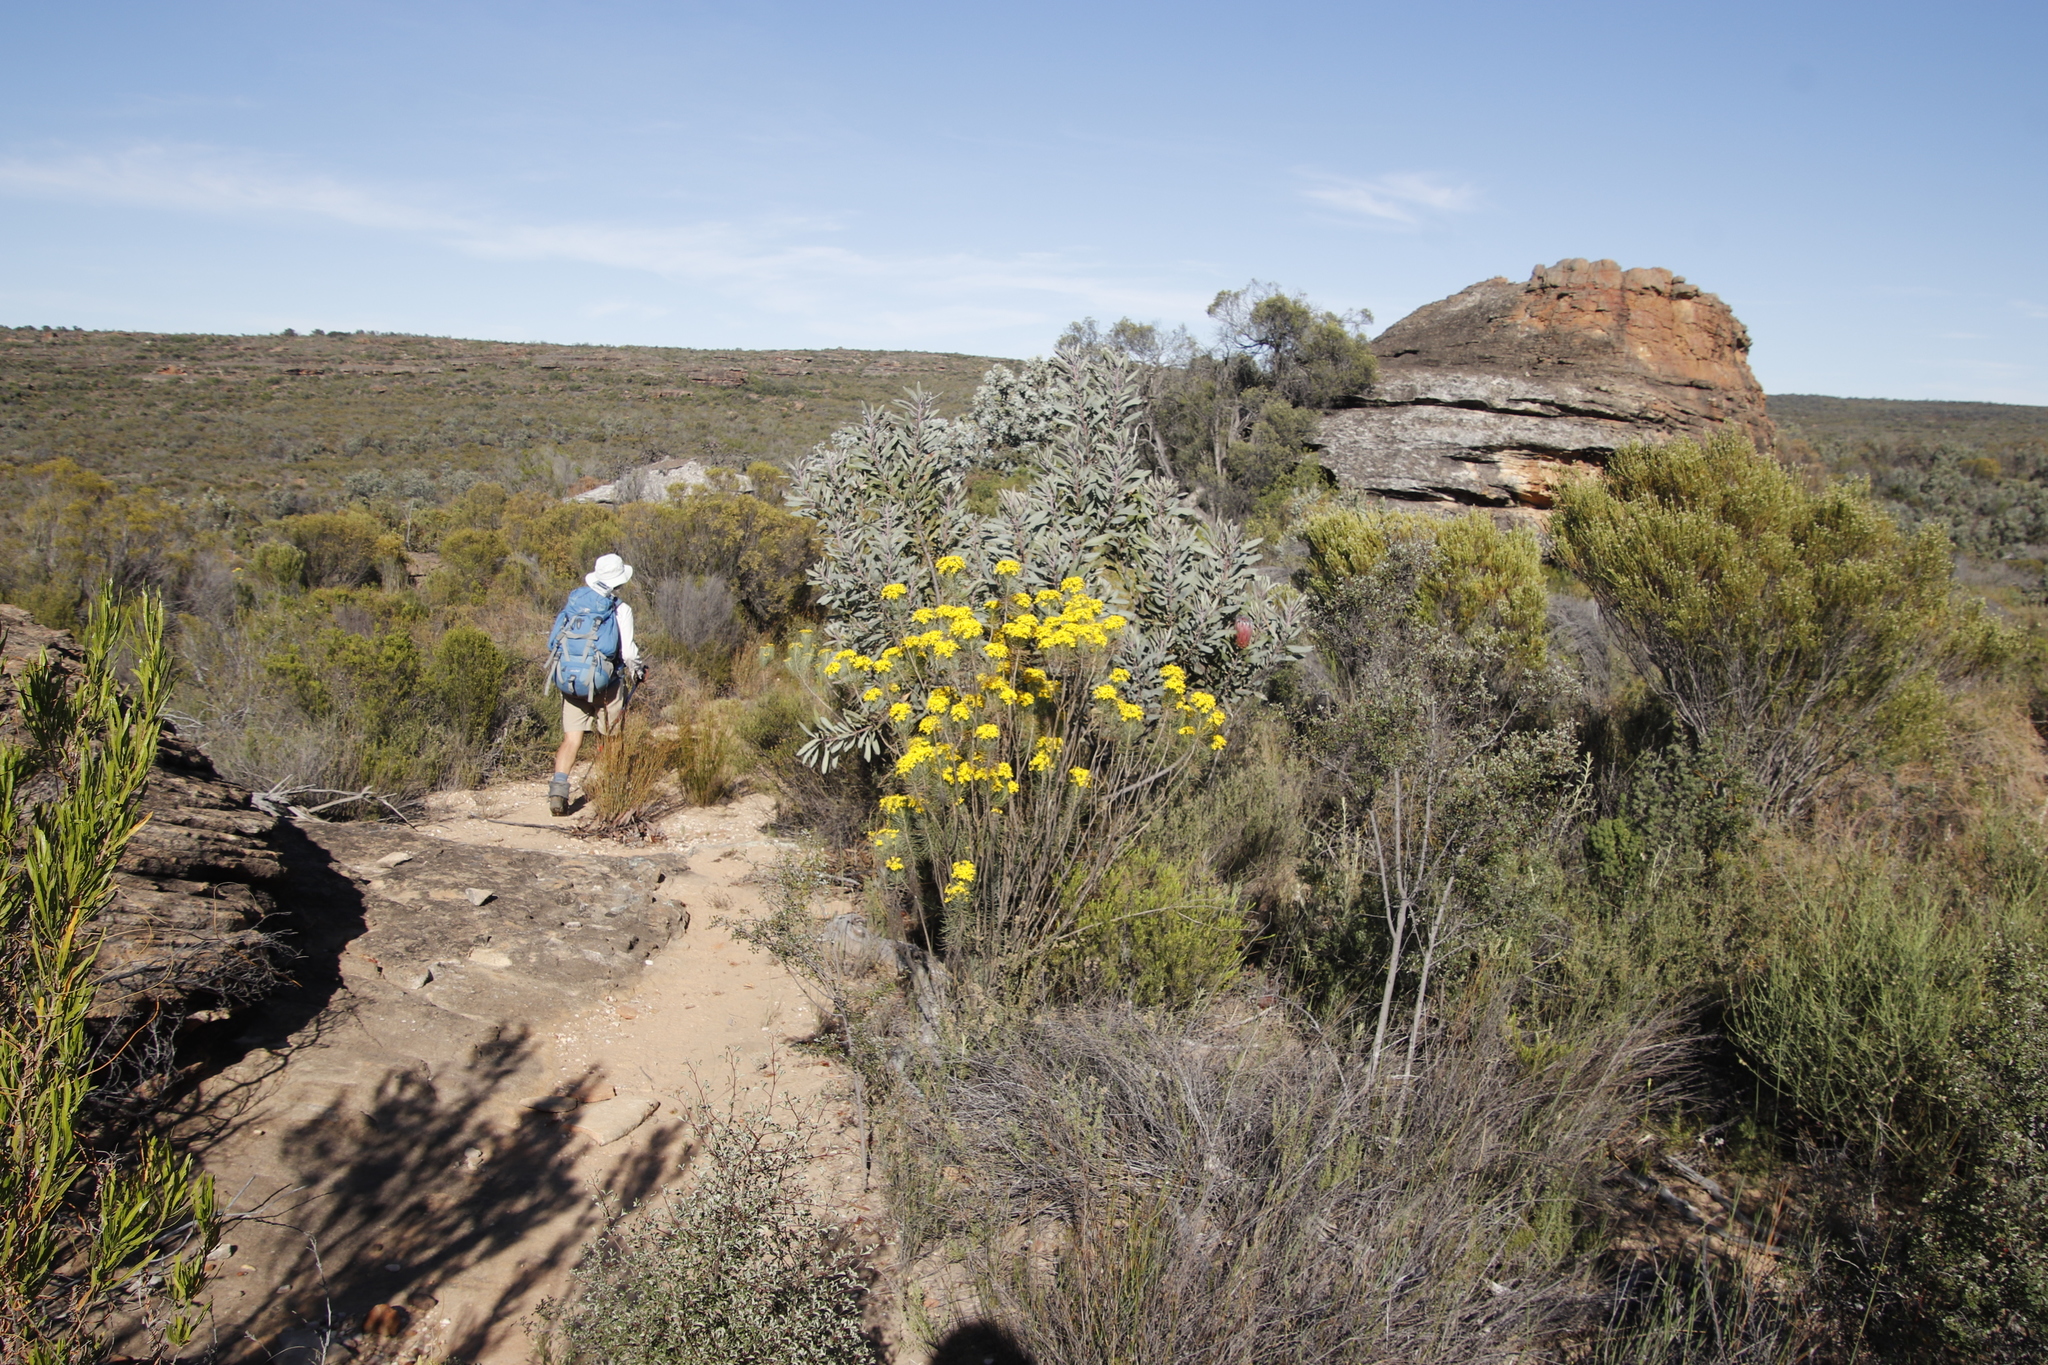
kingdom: Plantae
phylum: Tracheophyta
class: Magnoliopsida
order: Proteales
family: Proteaceae
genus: Protea
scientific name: Protea laurifolia
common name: Grey-leaf sugarbsh
